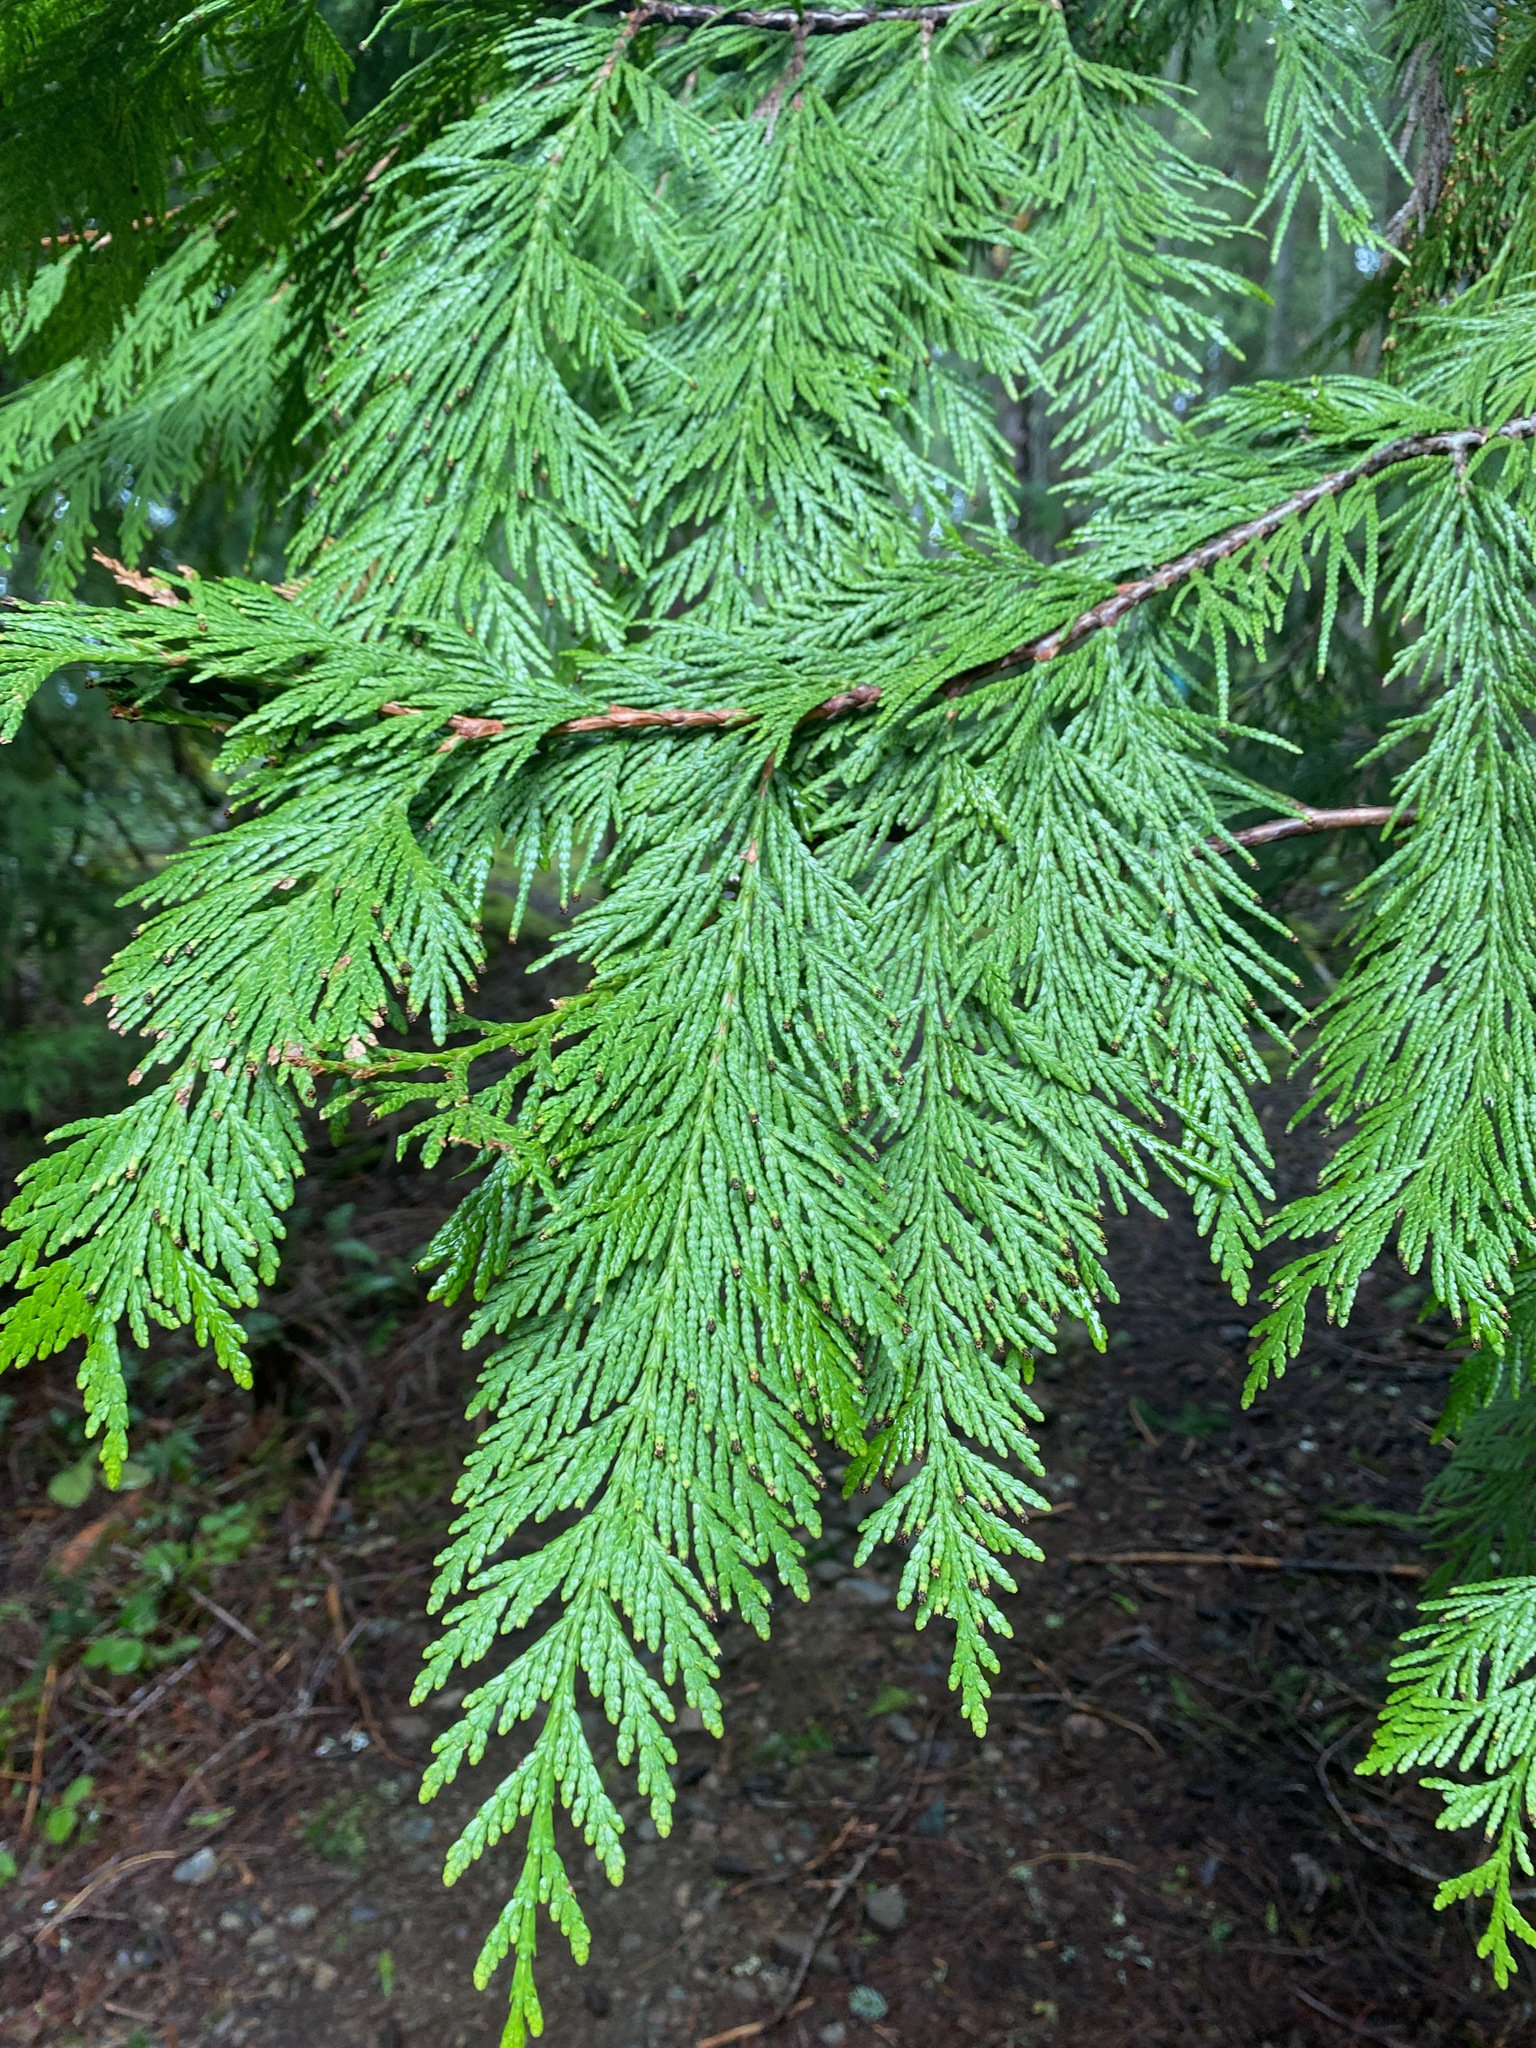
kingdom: Plantae
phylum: Tracheophyta
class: Pinopsida
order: Pinales
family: Cupressaceae
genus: Thuja
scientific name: Thuja plicata
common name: Western red-cedar
